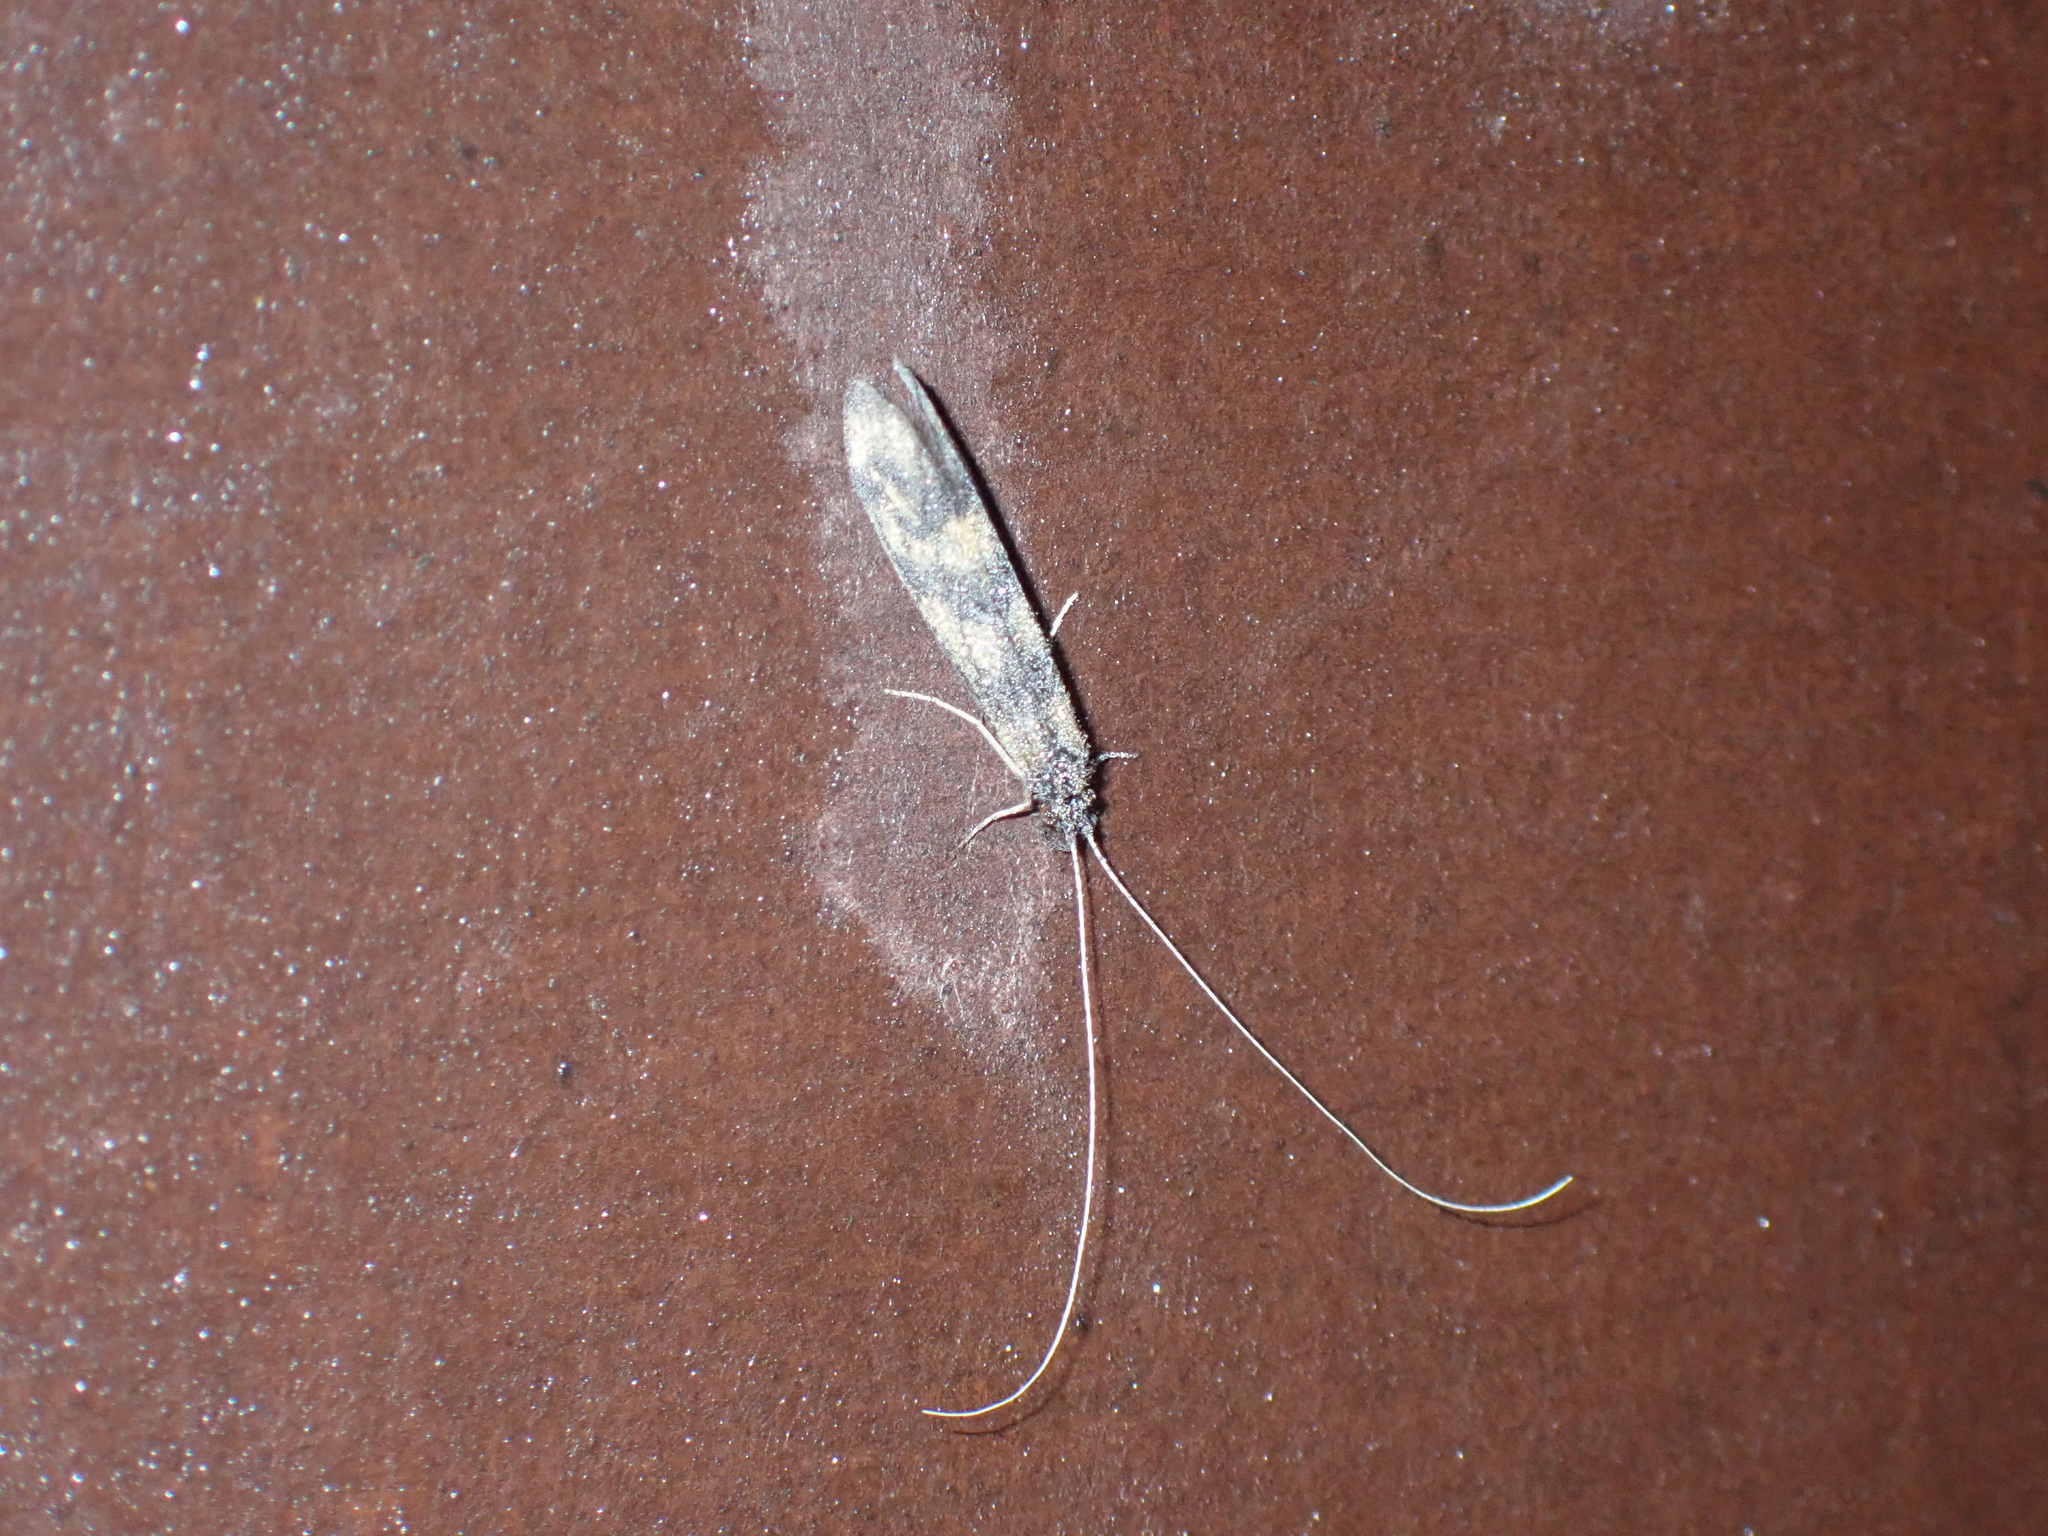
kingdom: Animalia
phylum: Arthropoda
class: Insecta
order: Trichoptera
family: Leptoceridae
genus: Mystacides
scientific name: Mystacides longicornis
